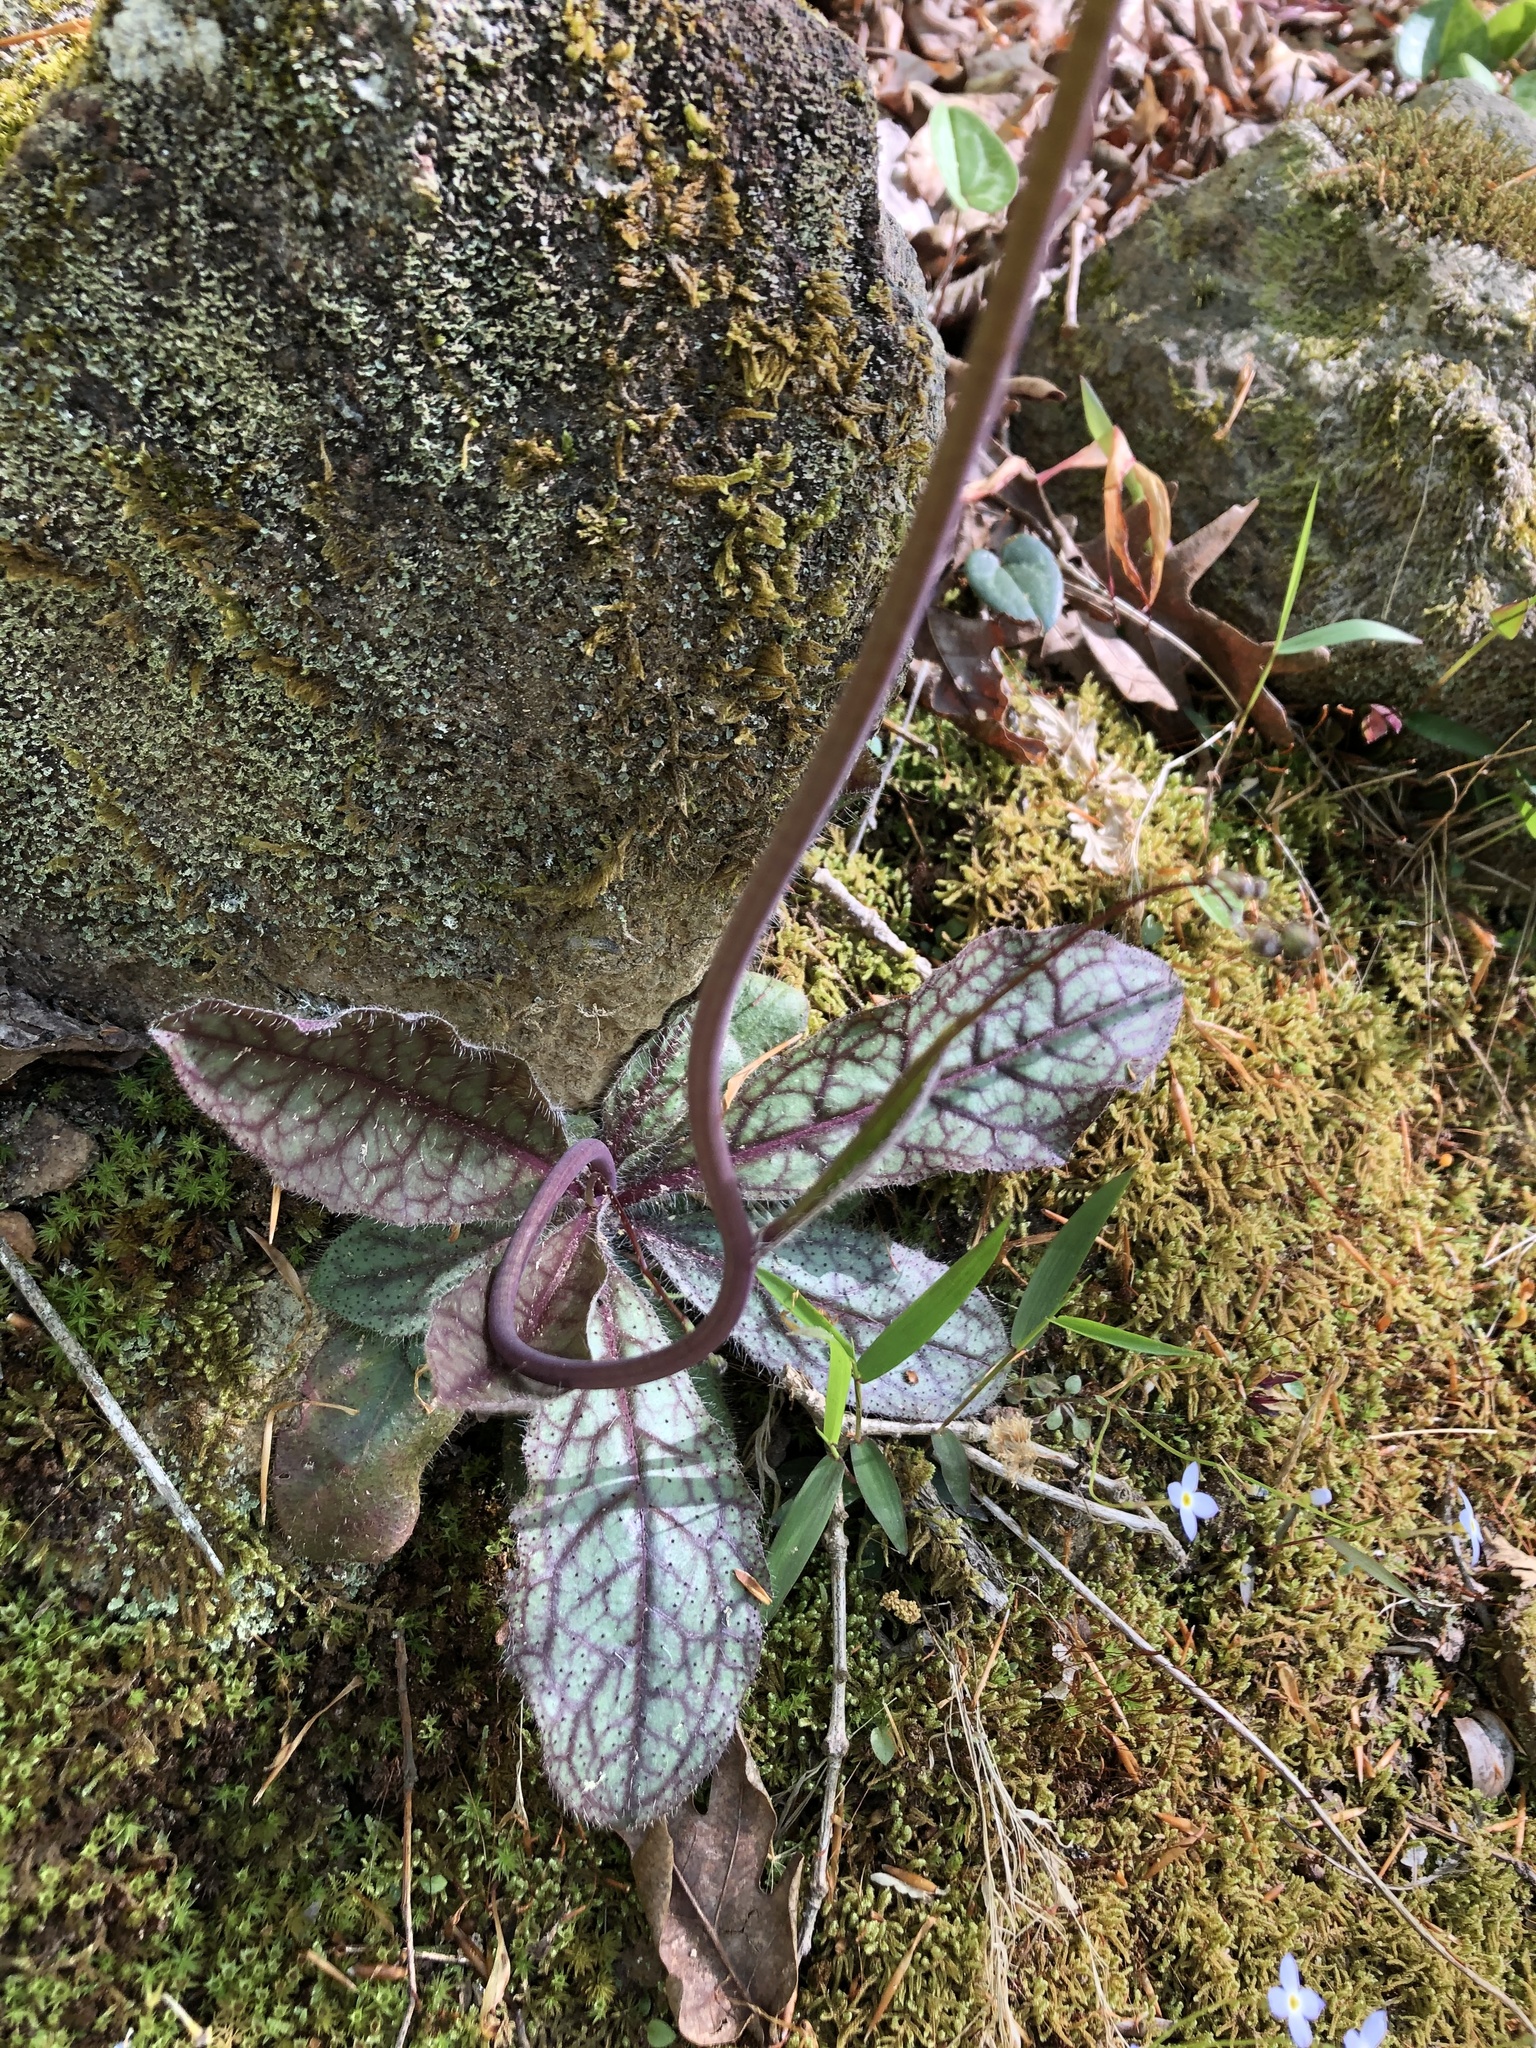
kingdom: Plantae
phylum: Tracheophyta
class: Magnoliopsida
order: Asterales
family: Asteraceae
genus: Hieracium
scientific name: Hieracium venosum
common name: Rattlesnake hawkweed
